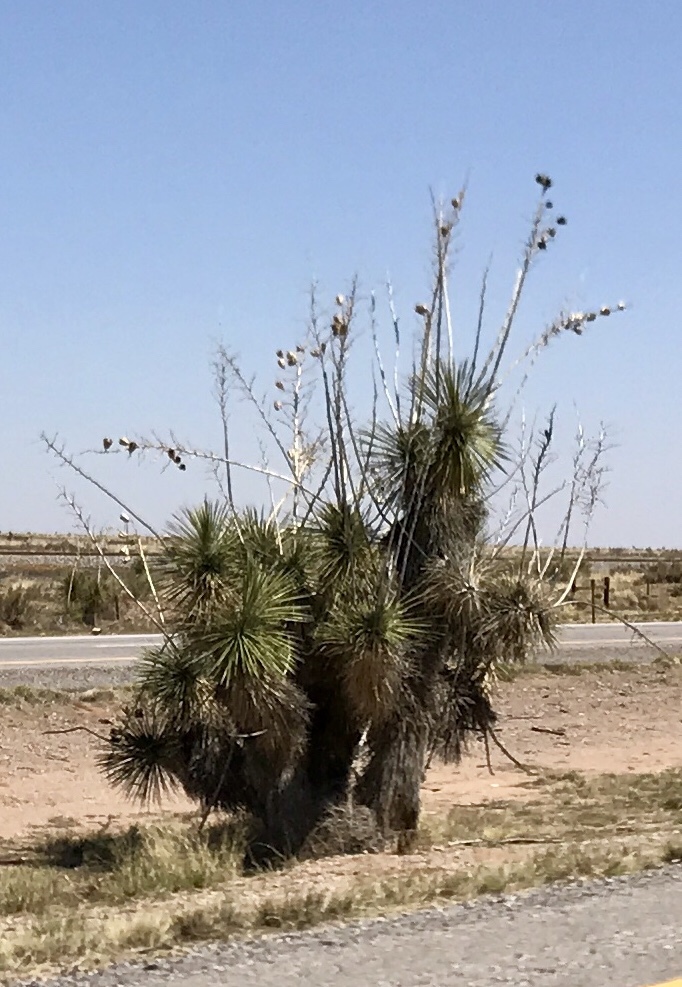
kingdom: Plantae
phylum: Tracheophyta
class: Liliopsida
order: Asparagales
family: Asparagaceae
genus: Yucca
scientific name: Yucca elata
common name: Palmella
